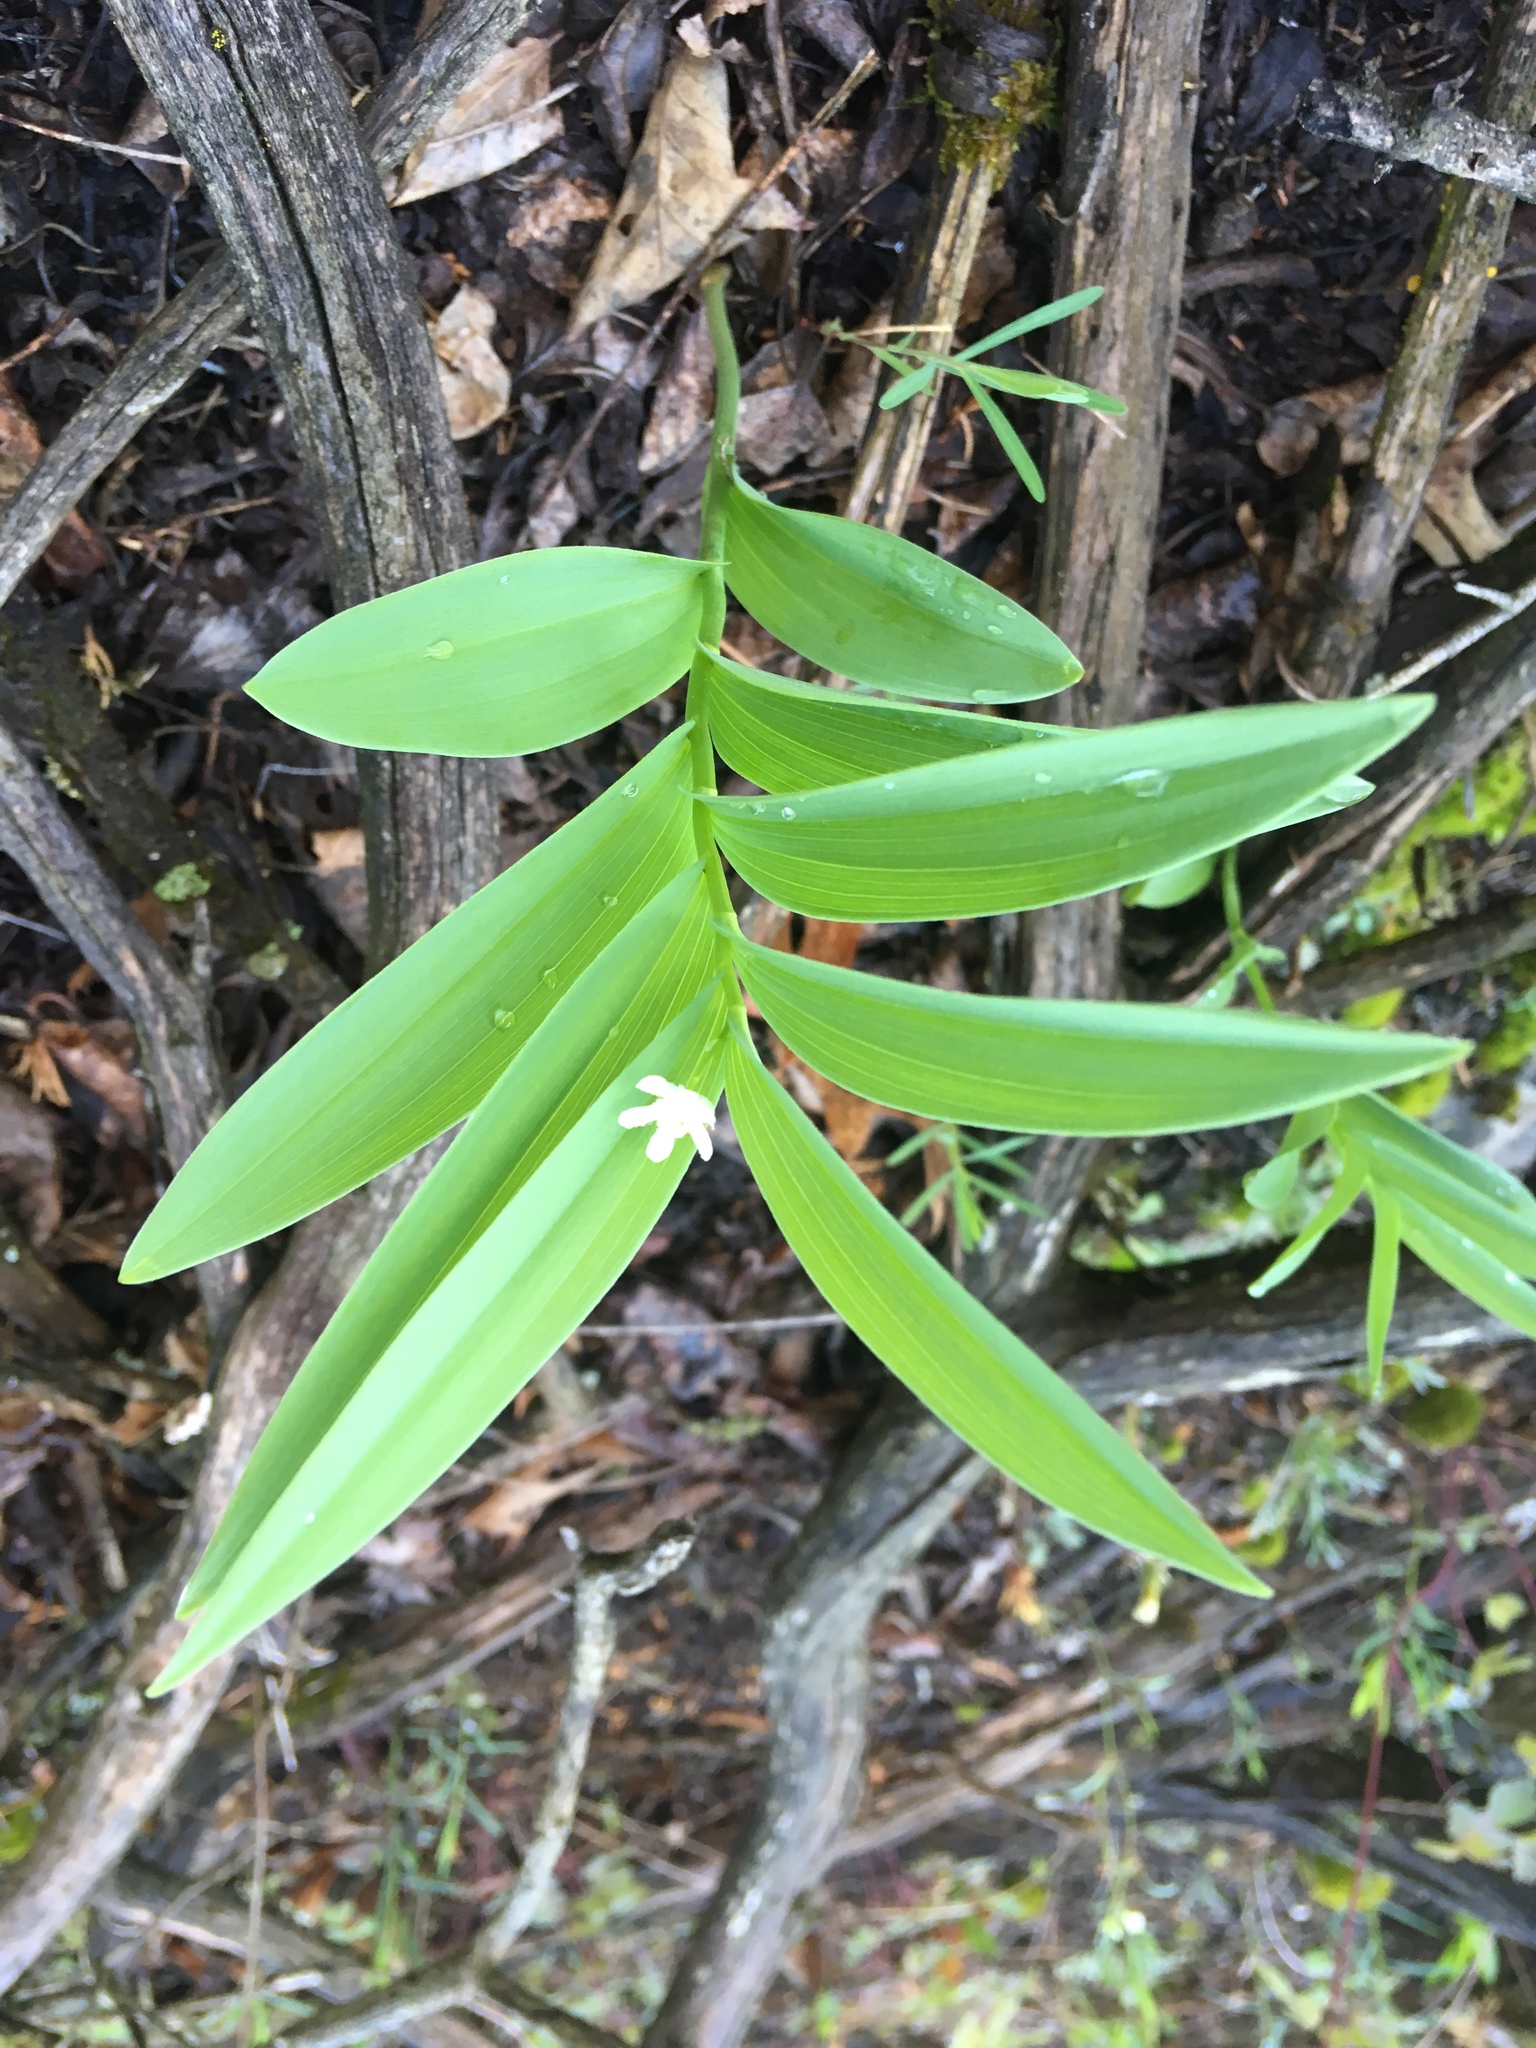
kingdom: Plantae
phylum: Tracheophyta
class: Liliopsida
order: Asparagales
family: Asparagaceae
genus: Maianthemum
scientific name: Maianthemum stellatum
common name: Little false solomon's seal
